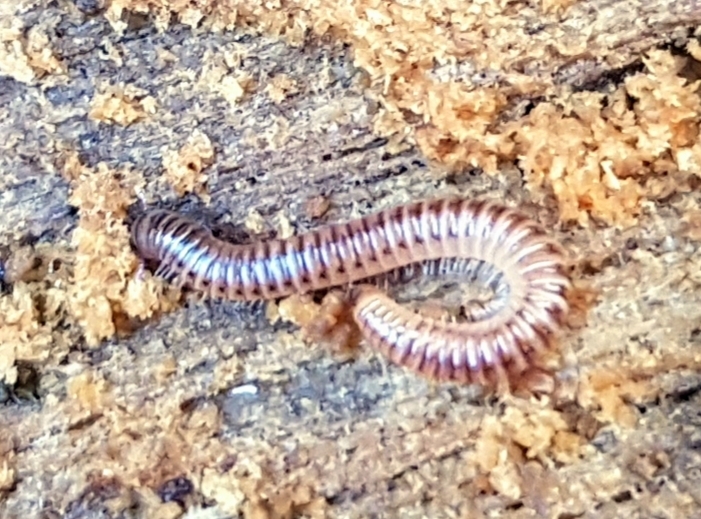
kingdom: Animalia
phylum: Arthropoda
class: Diplopoda
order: Julida
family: Julidae
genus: Cylindroiulus
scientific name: Cylindroiulus punctatus
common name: Blunt-tailed millipede
